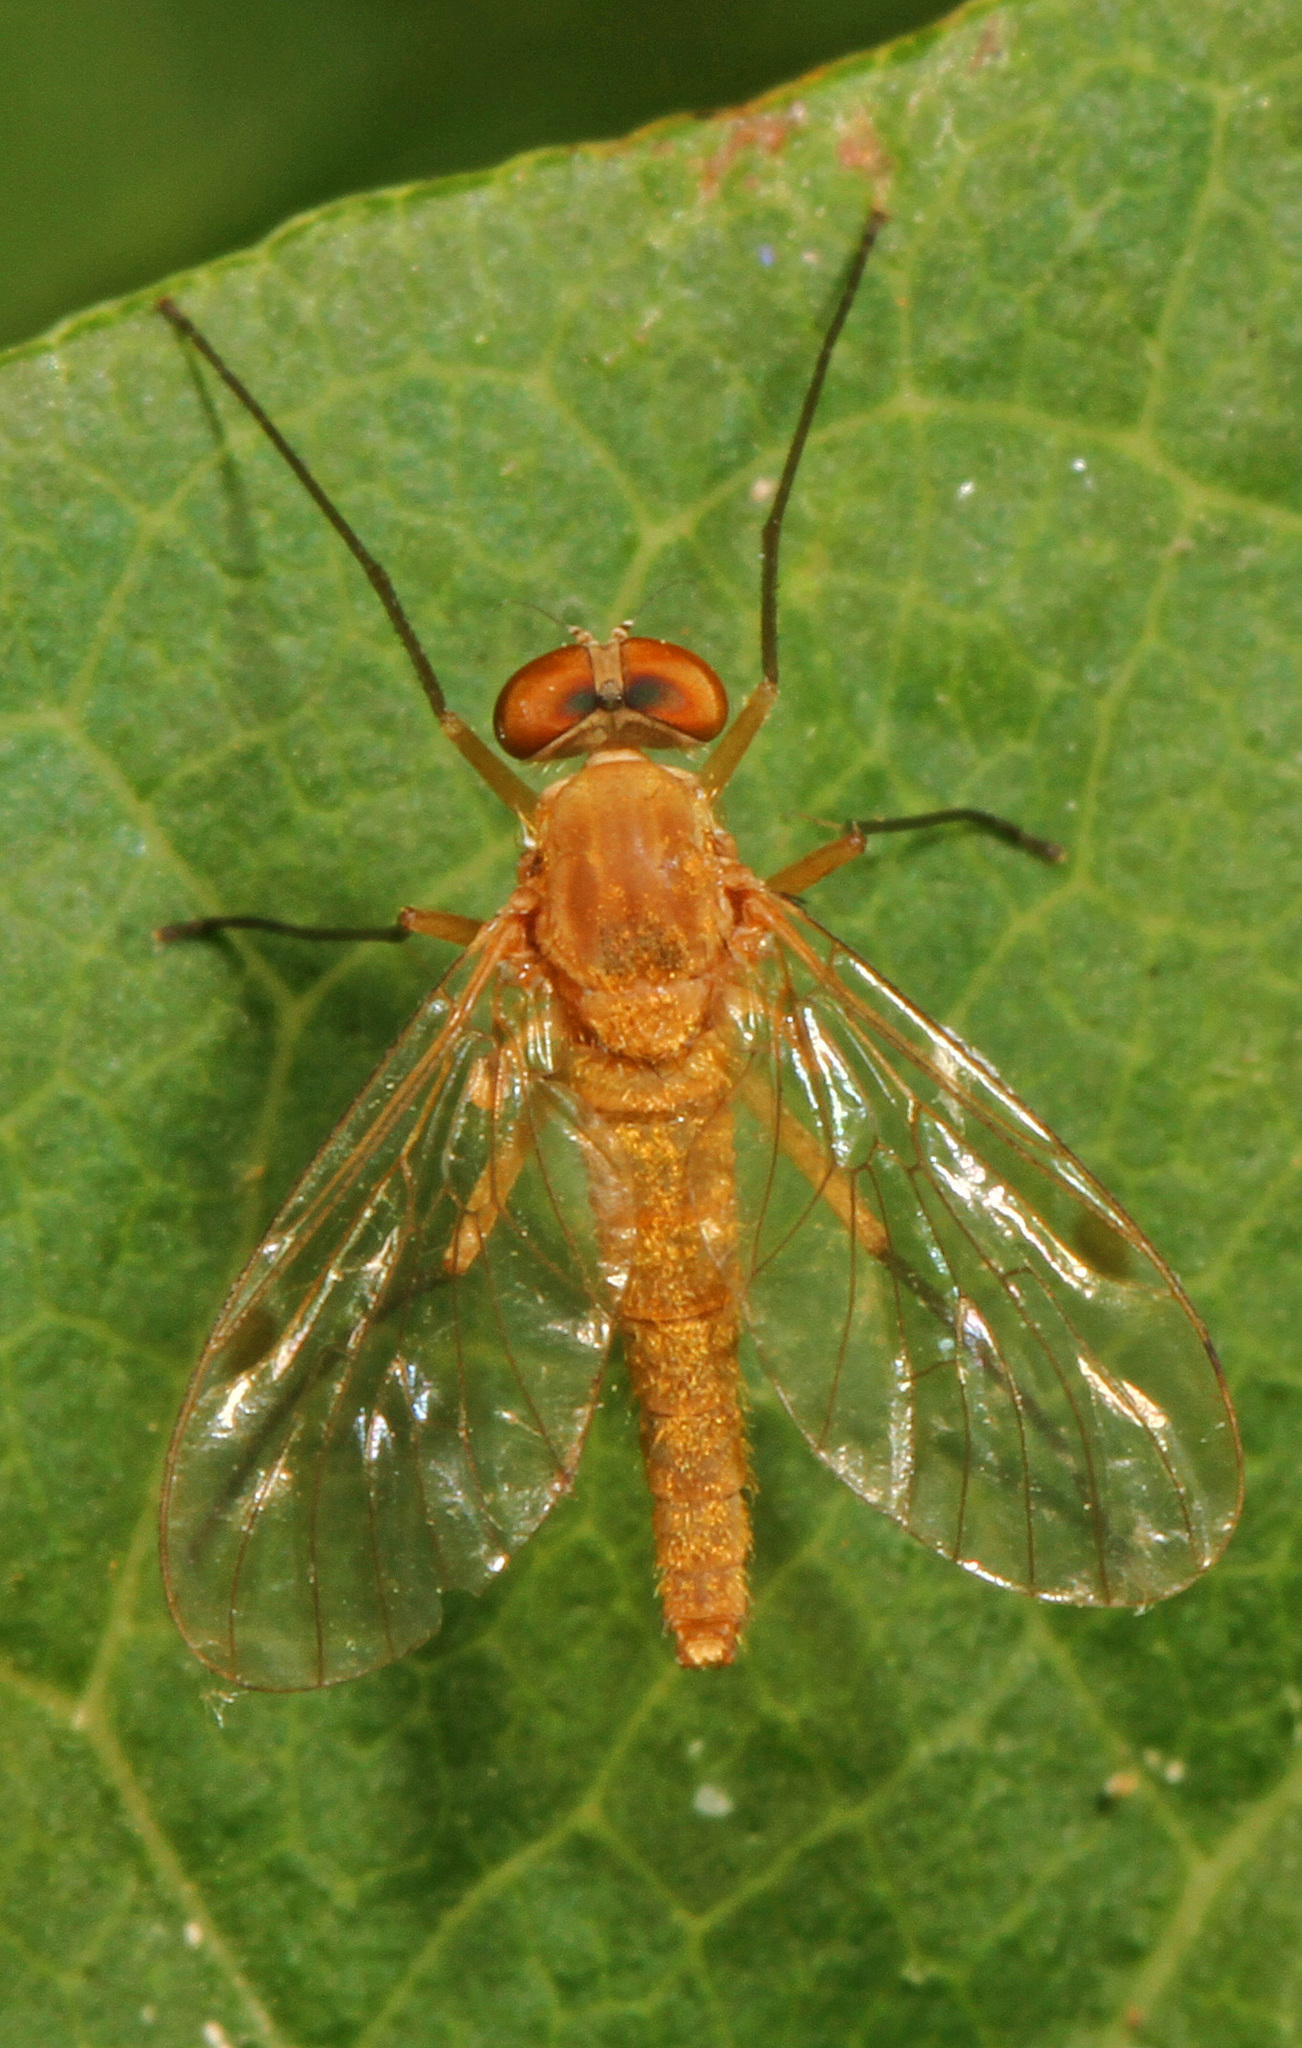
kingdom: Animalia
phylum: Arthropoda
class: Insecta
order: Diptera
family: Rhagionidae
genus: Chrysopilus
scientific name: Chrysopilus rotundipennis
